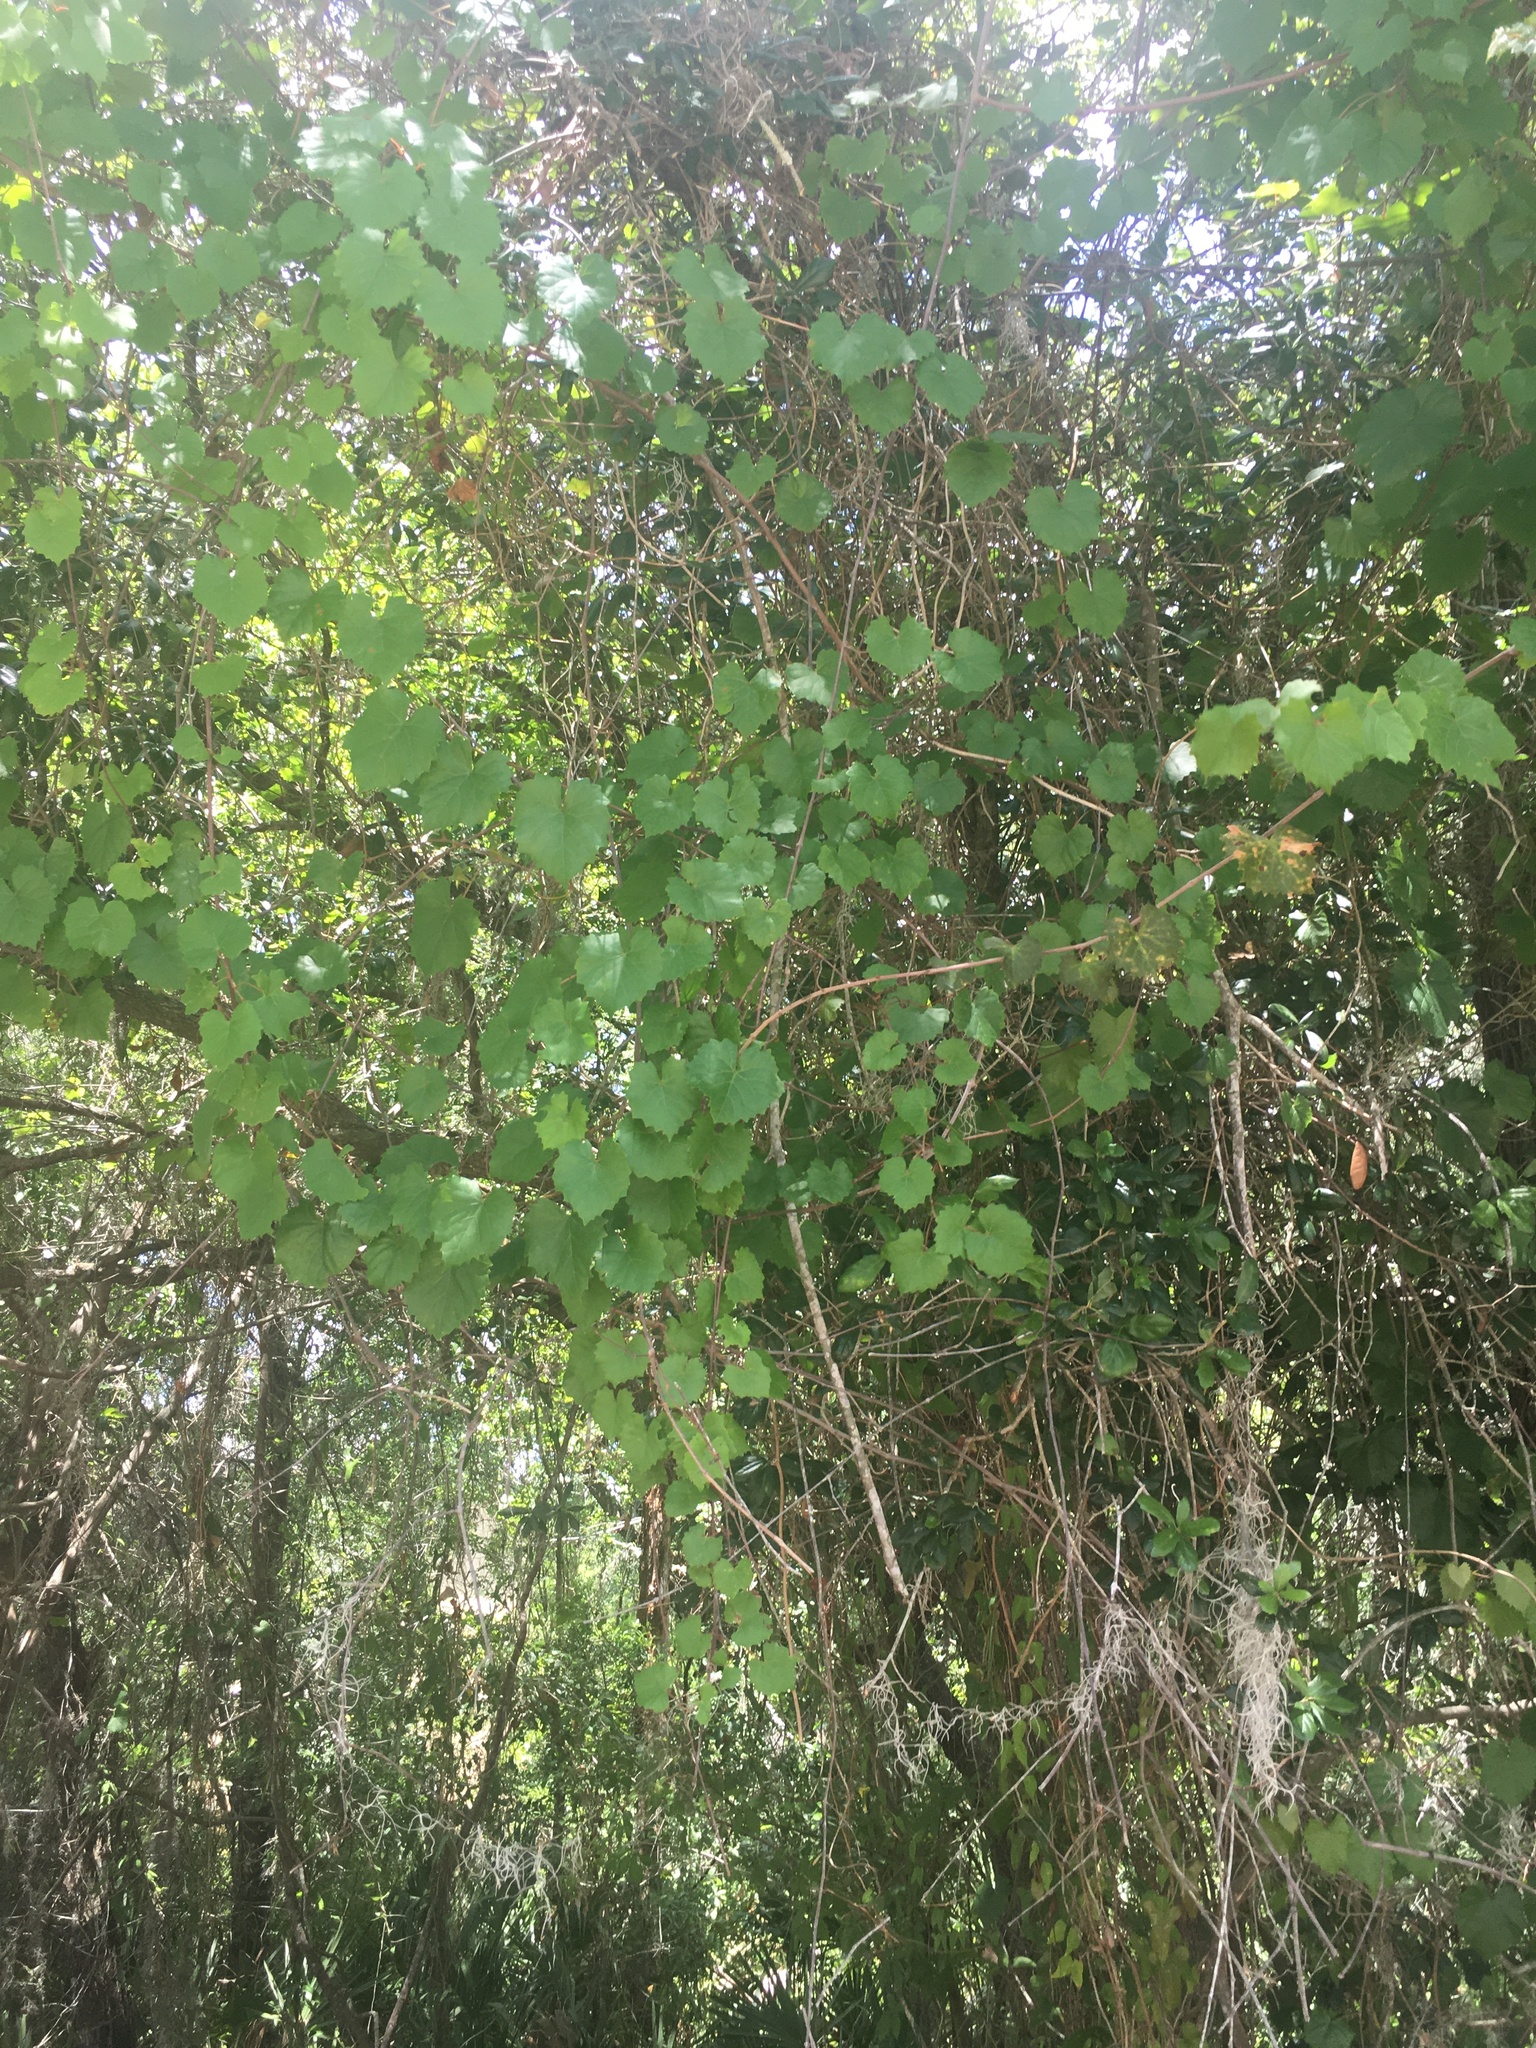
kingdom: Plantae
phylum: Tracheophyta
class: Magnoliopsida
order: Vitales
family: Vitaceae
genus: Vitis
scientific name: Vitis rotundifolia
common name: Muscadine grape
